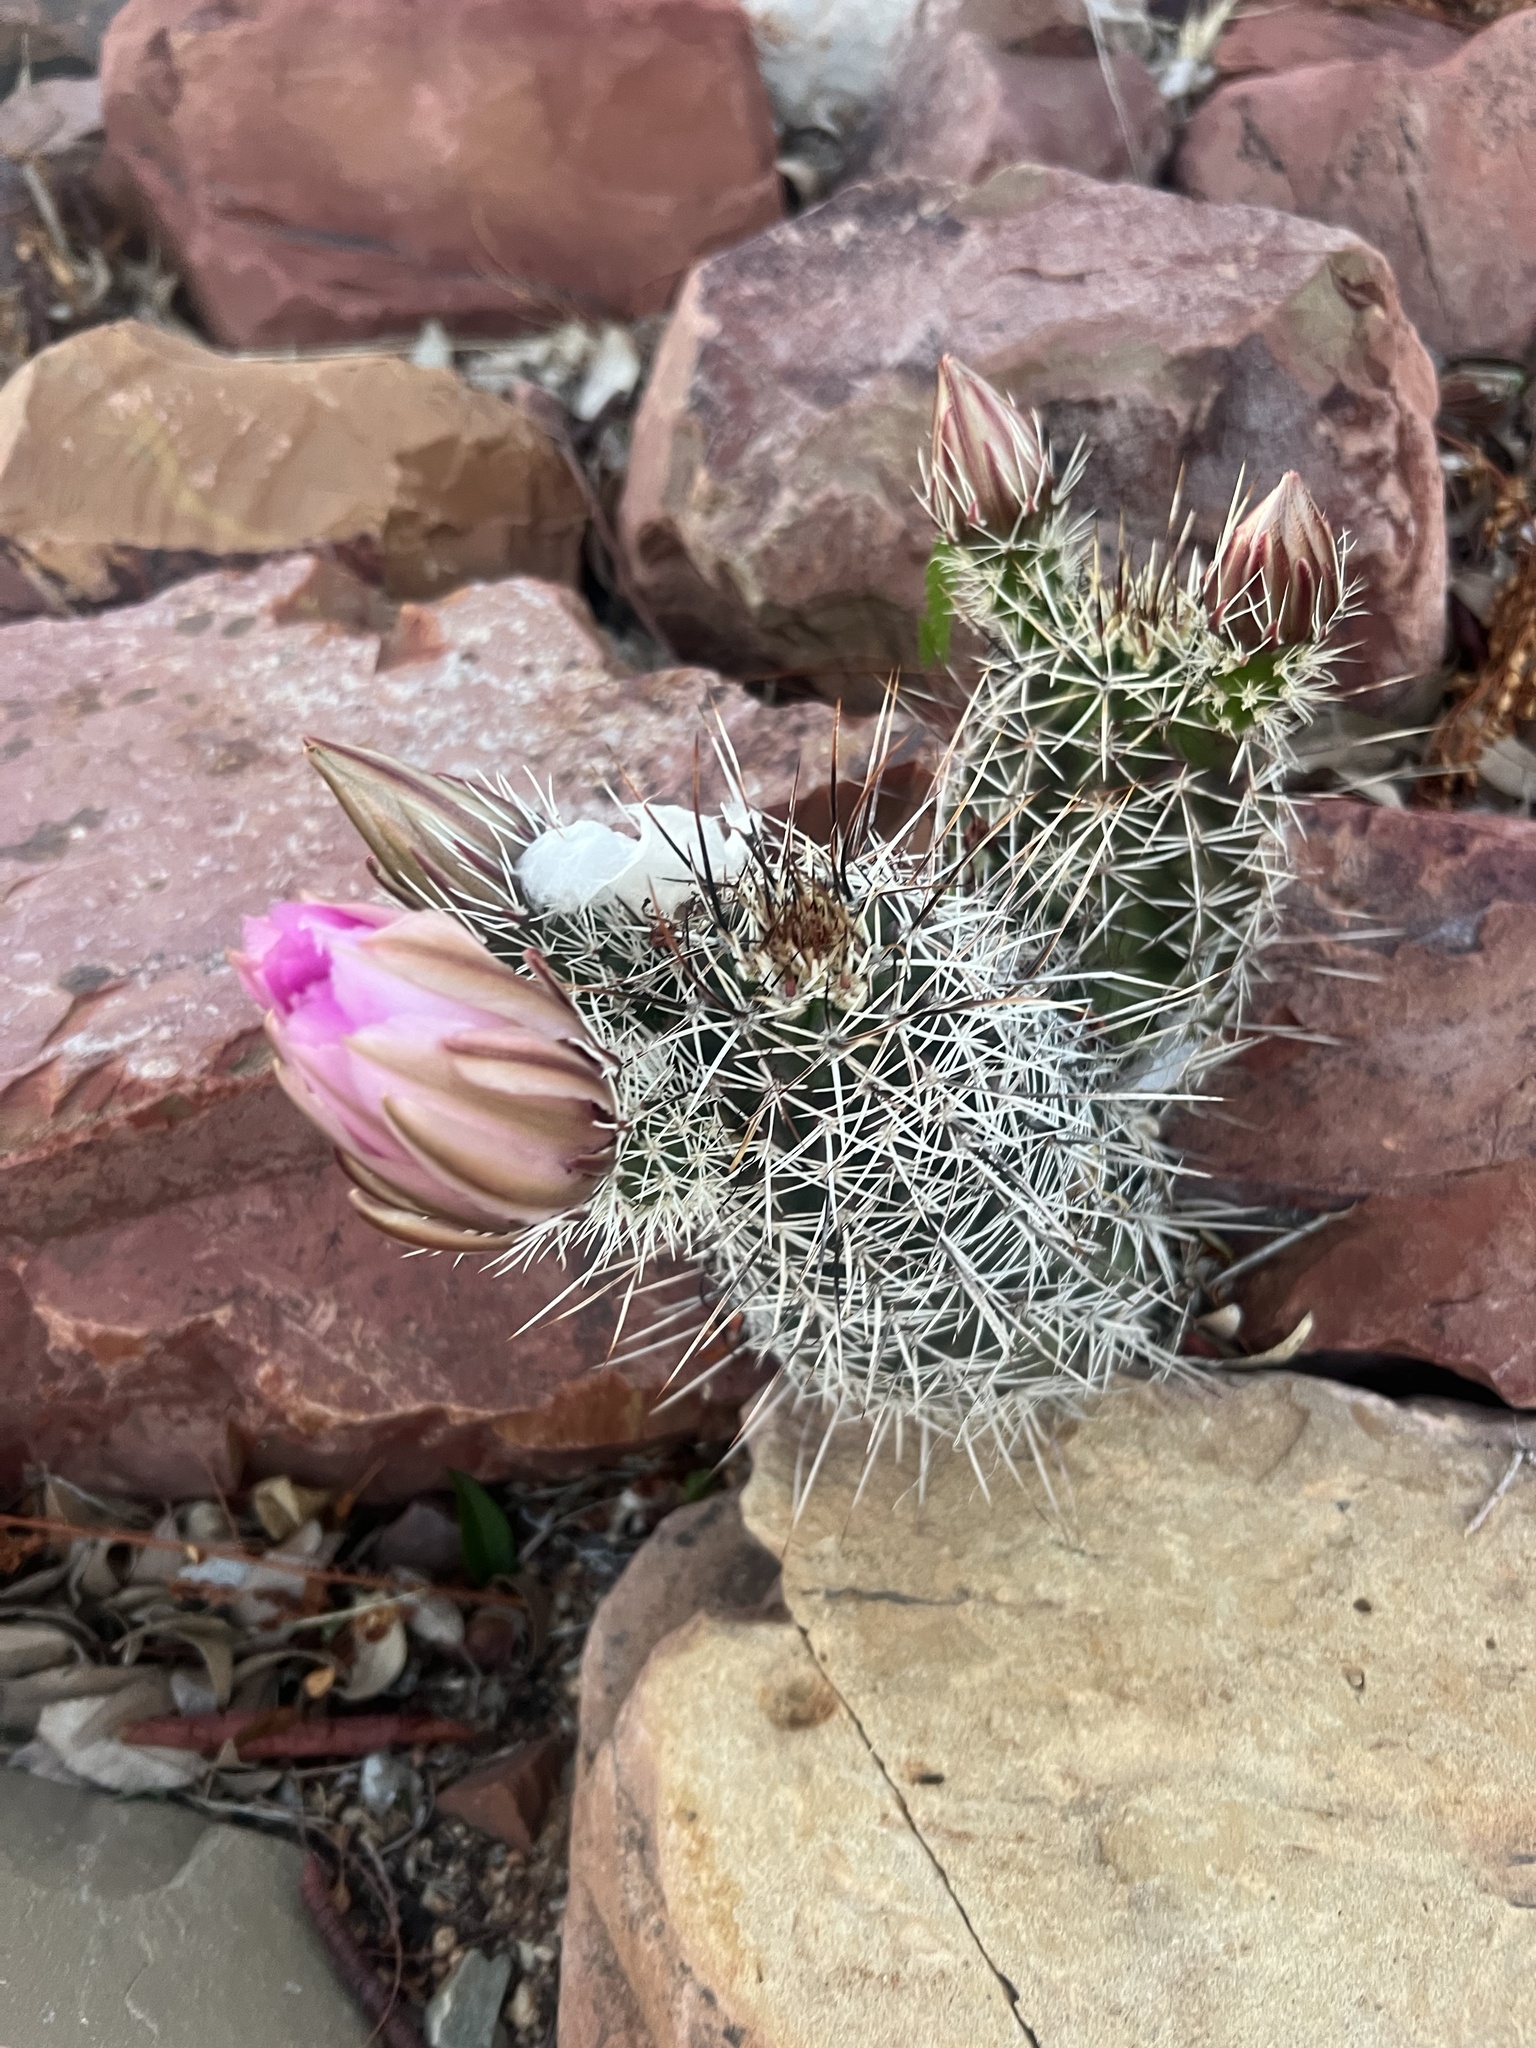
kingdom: Plantae
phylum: Tracheophyta
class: Magnoliopsida
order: Caryophyllales
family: Cactaceae
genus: Echinocereus
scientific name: Echinocereus fasciculatus
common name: Bundle hedgehog
